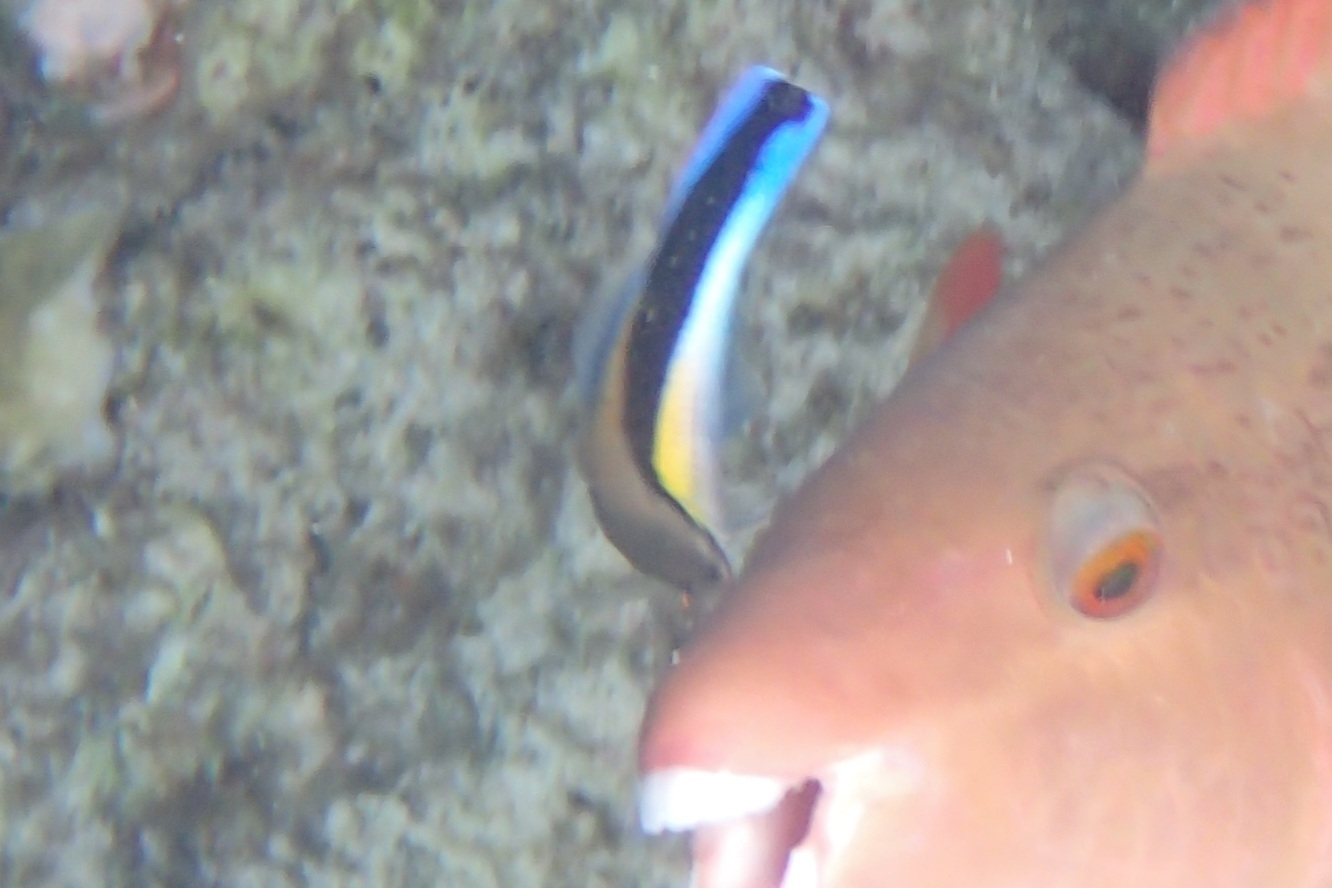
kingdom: Animalia
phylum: Chordata
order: Perciformes
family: Labridae
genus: Labroides
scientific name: Labroides dimidiatus
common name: Blue diesel wrasse
